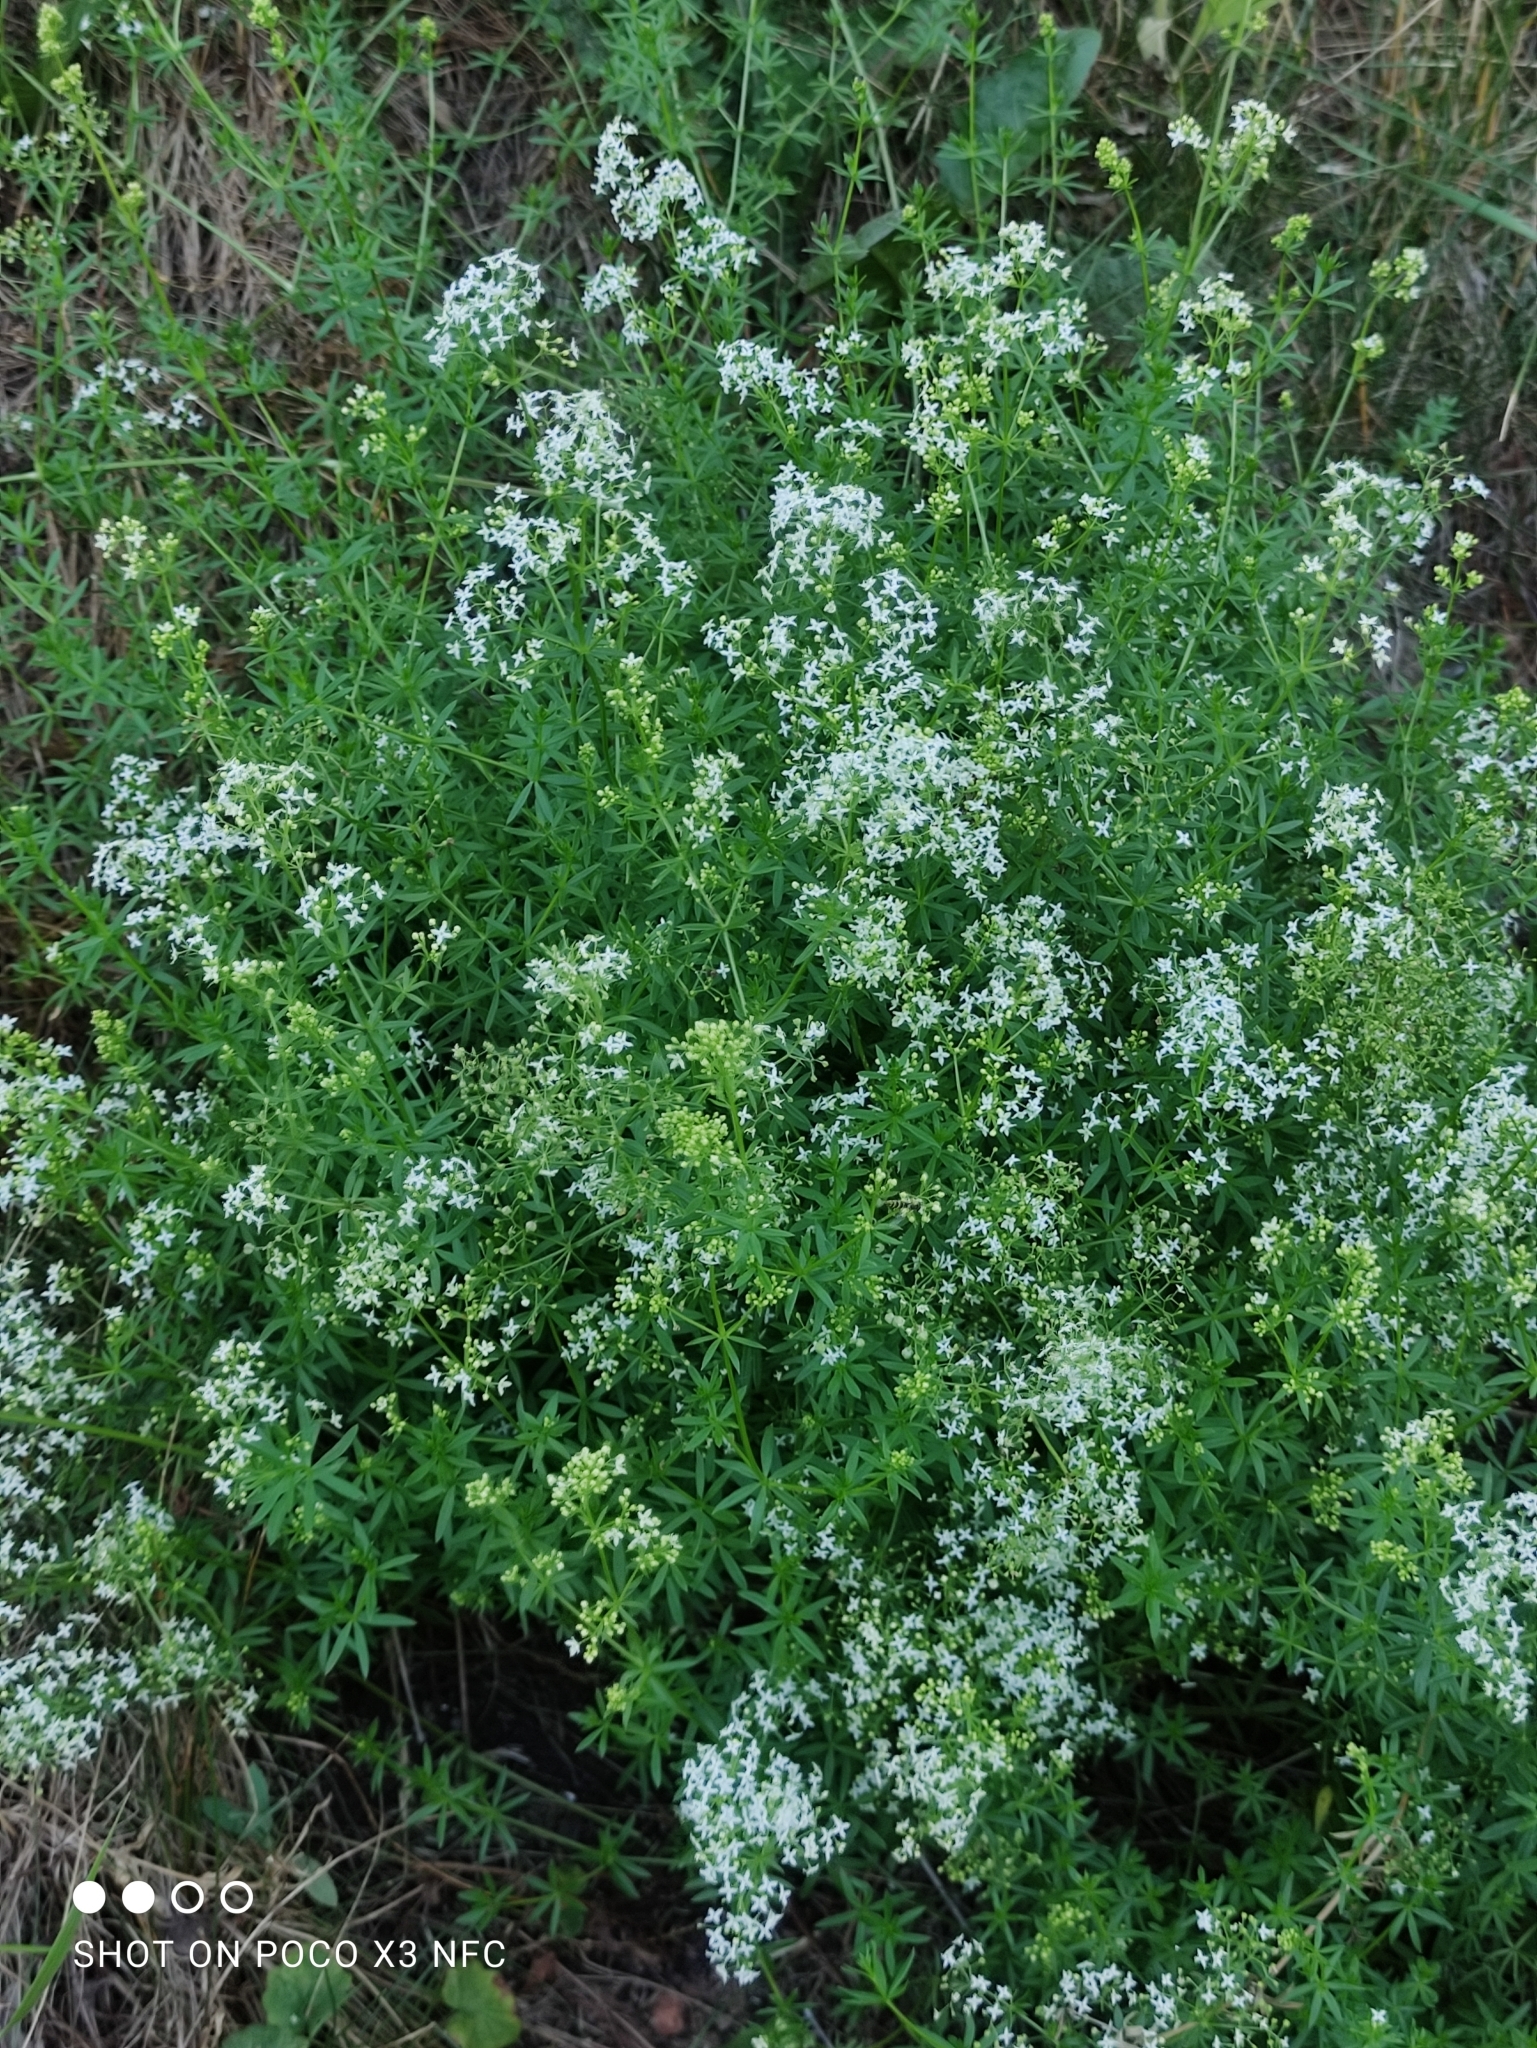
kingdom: Plantae
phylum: Tracheophyta
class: Magnoliopsida
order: Gentianales
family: Rubiaceae
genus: Galium
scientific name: Galium mollugo
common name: Hedge bedstraw
